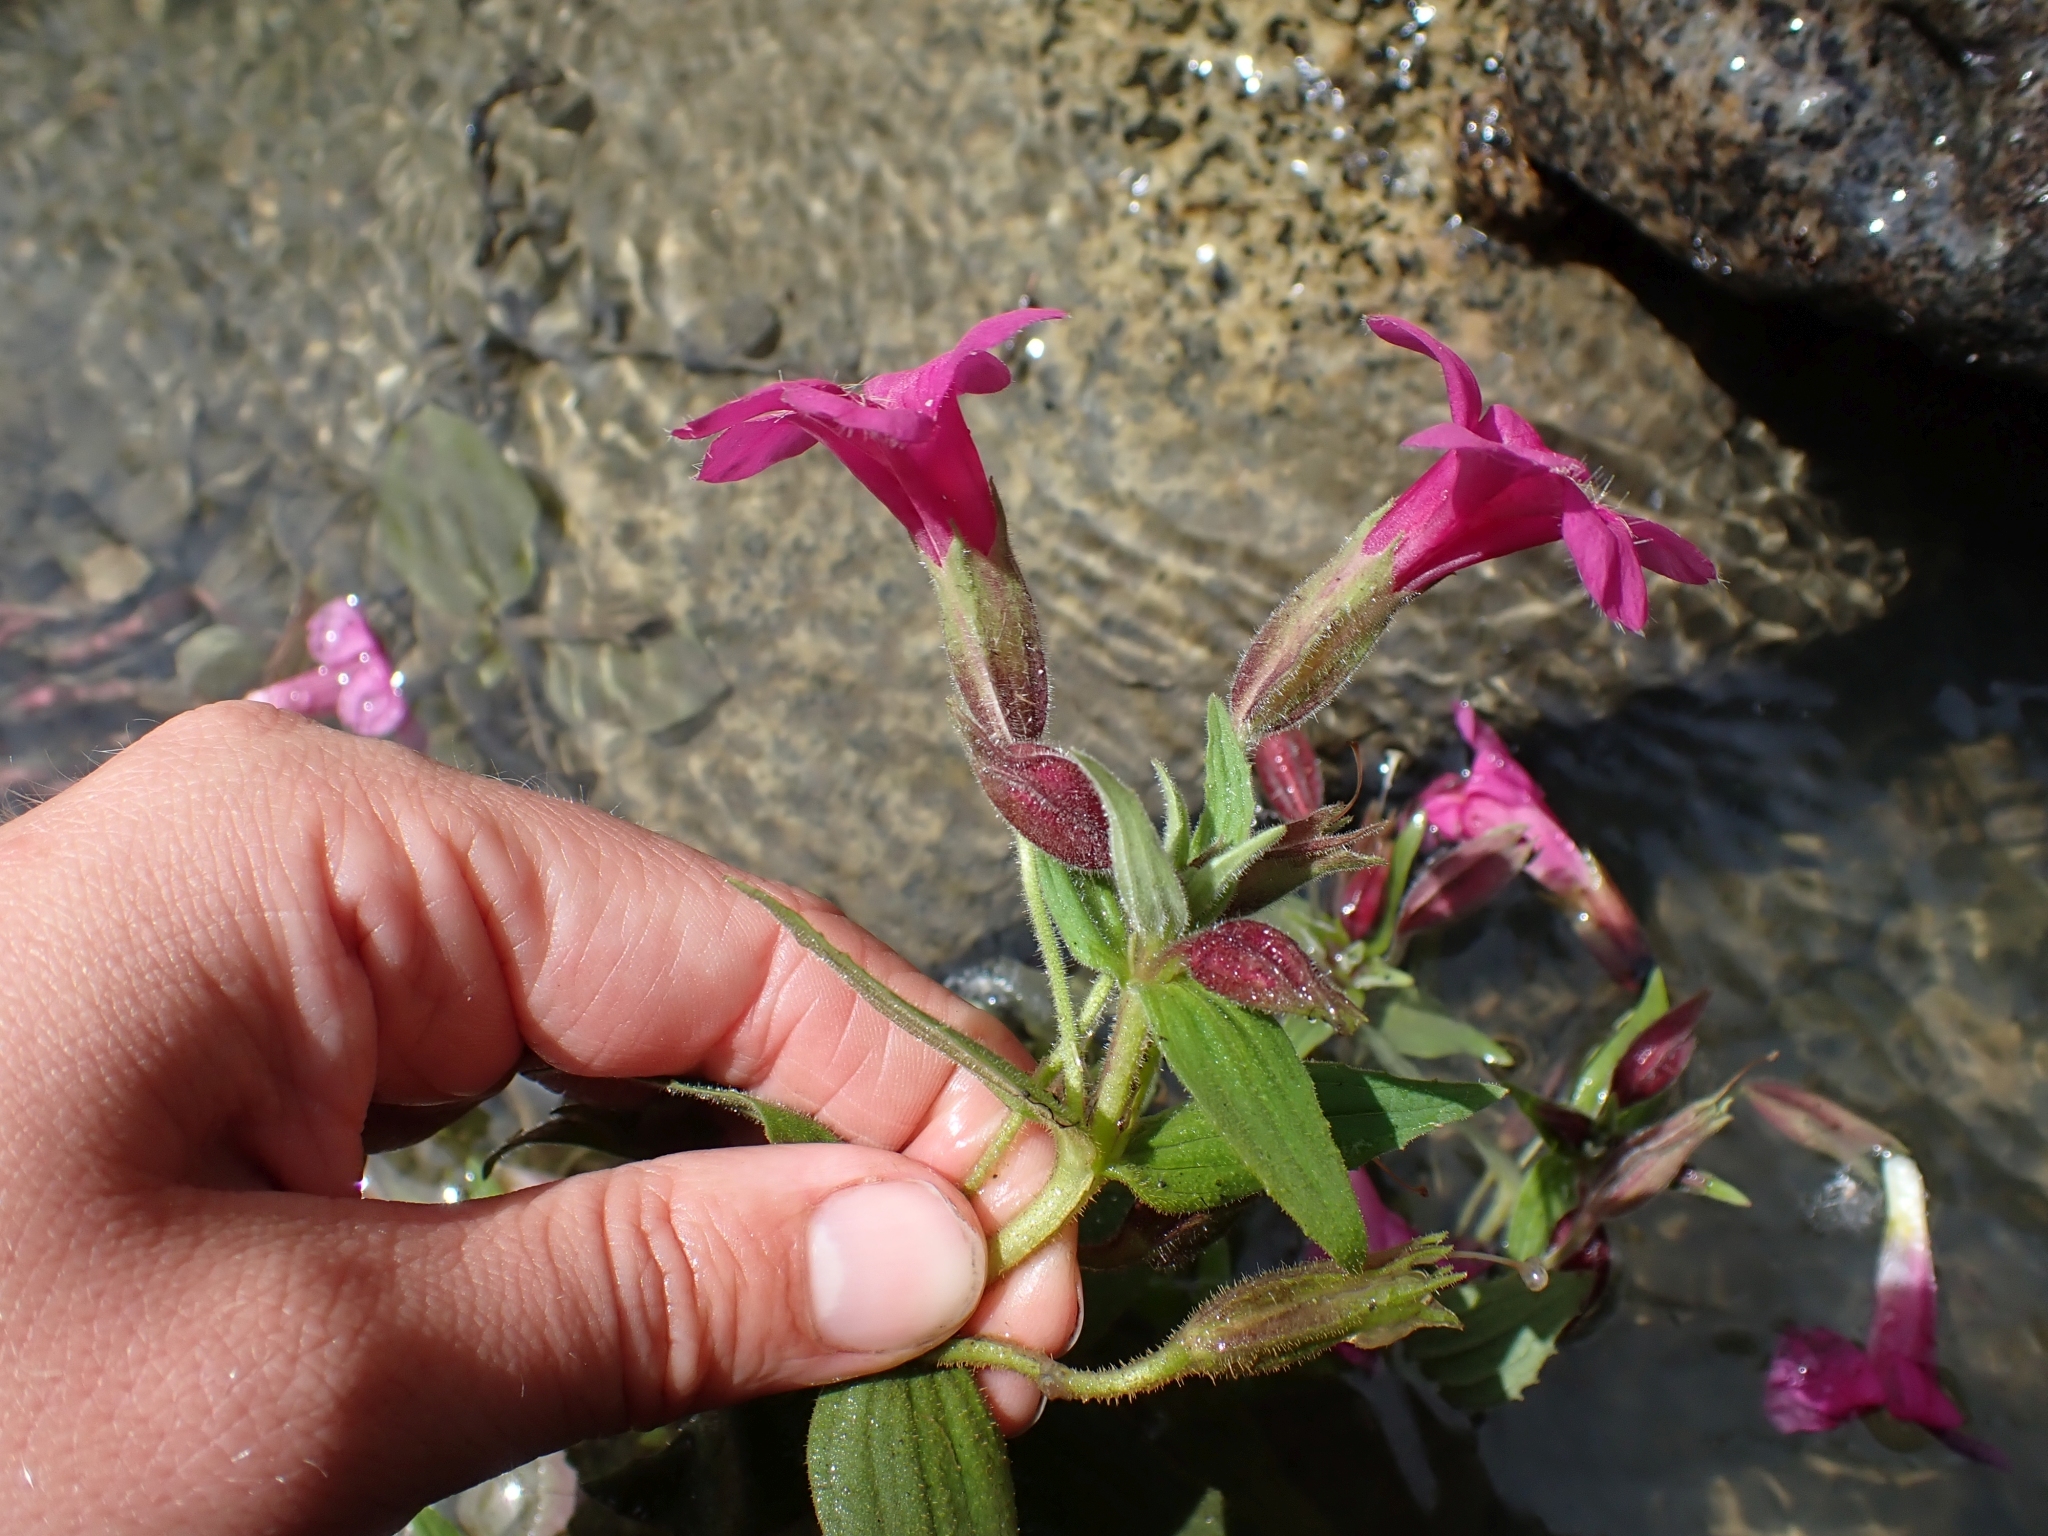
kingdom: Plantae
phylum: Tracheophyta
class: Magnoliopsida
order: Lamiales
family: Phrymaceae
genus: Erythranthe
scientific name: Erythranthe lewisii
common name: Lewis's monkey-flower
